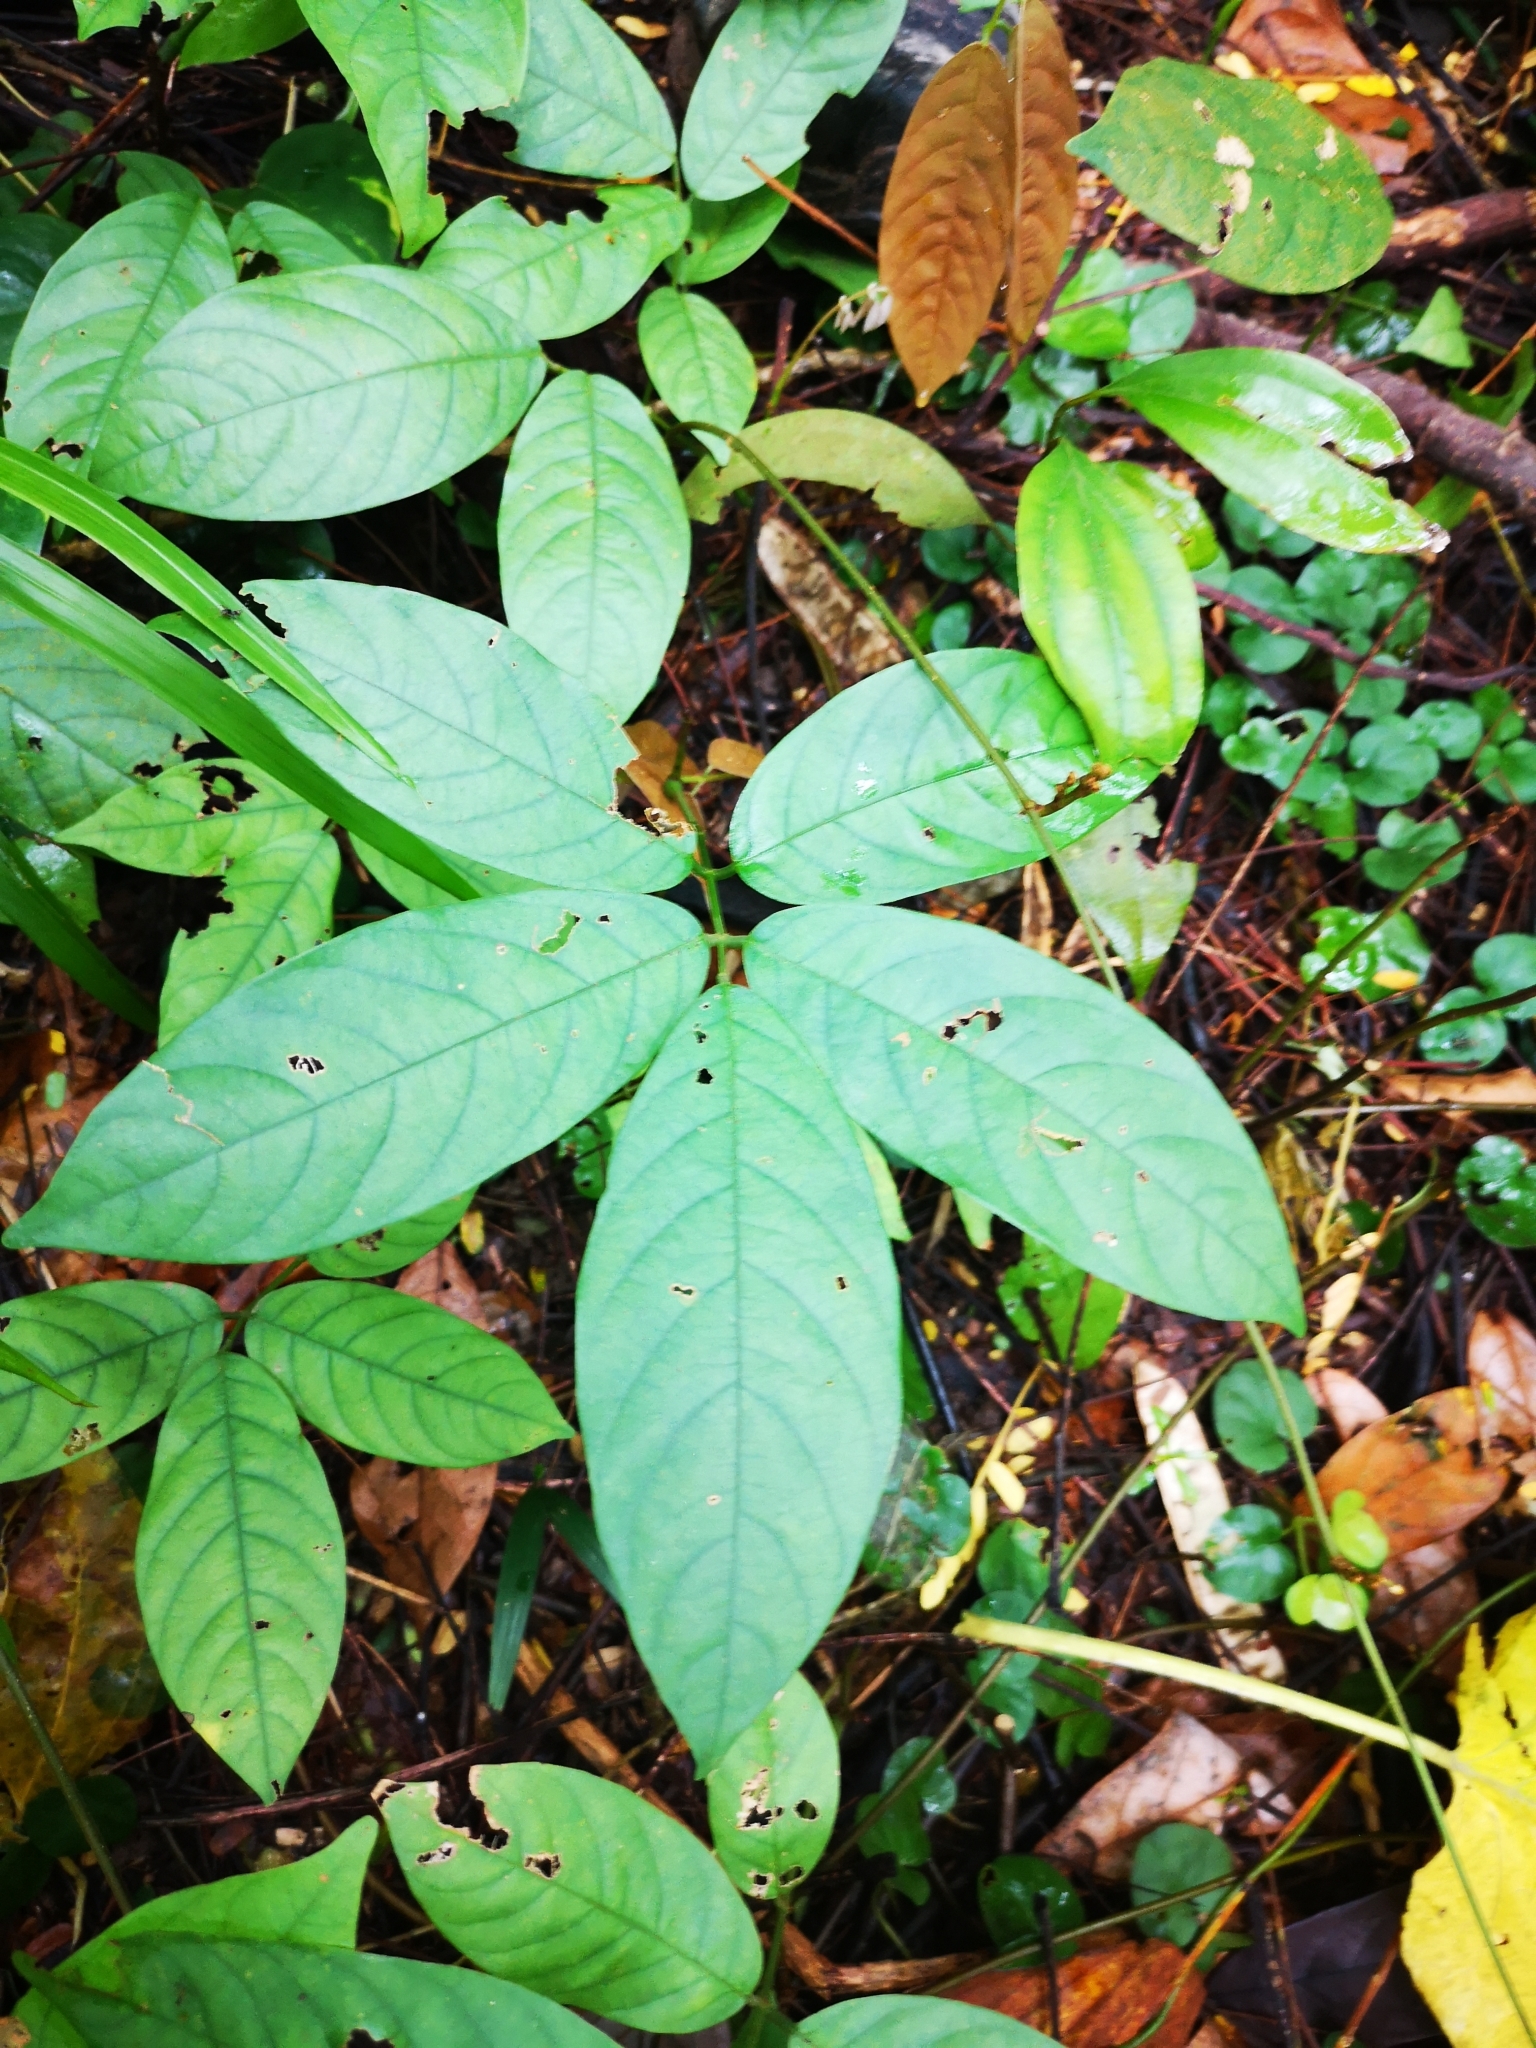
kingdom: Plantae
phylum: Tracheophyta
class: Magnoliopsida
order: Fabales
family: Fabaceae
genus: Derris
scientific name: Derris elliptica
